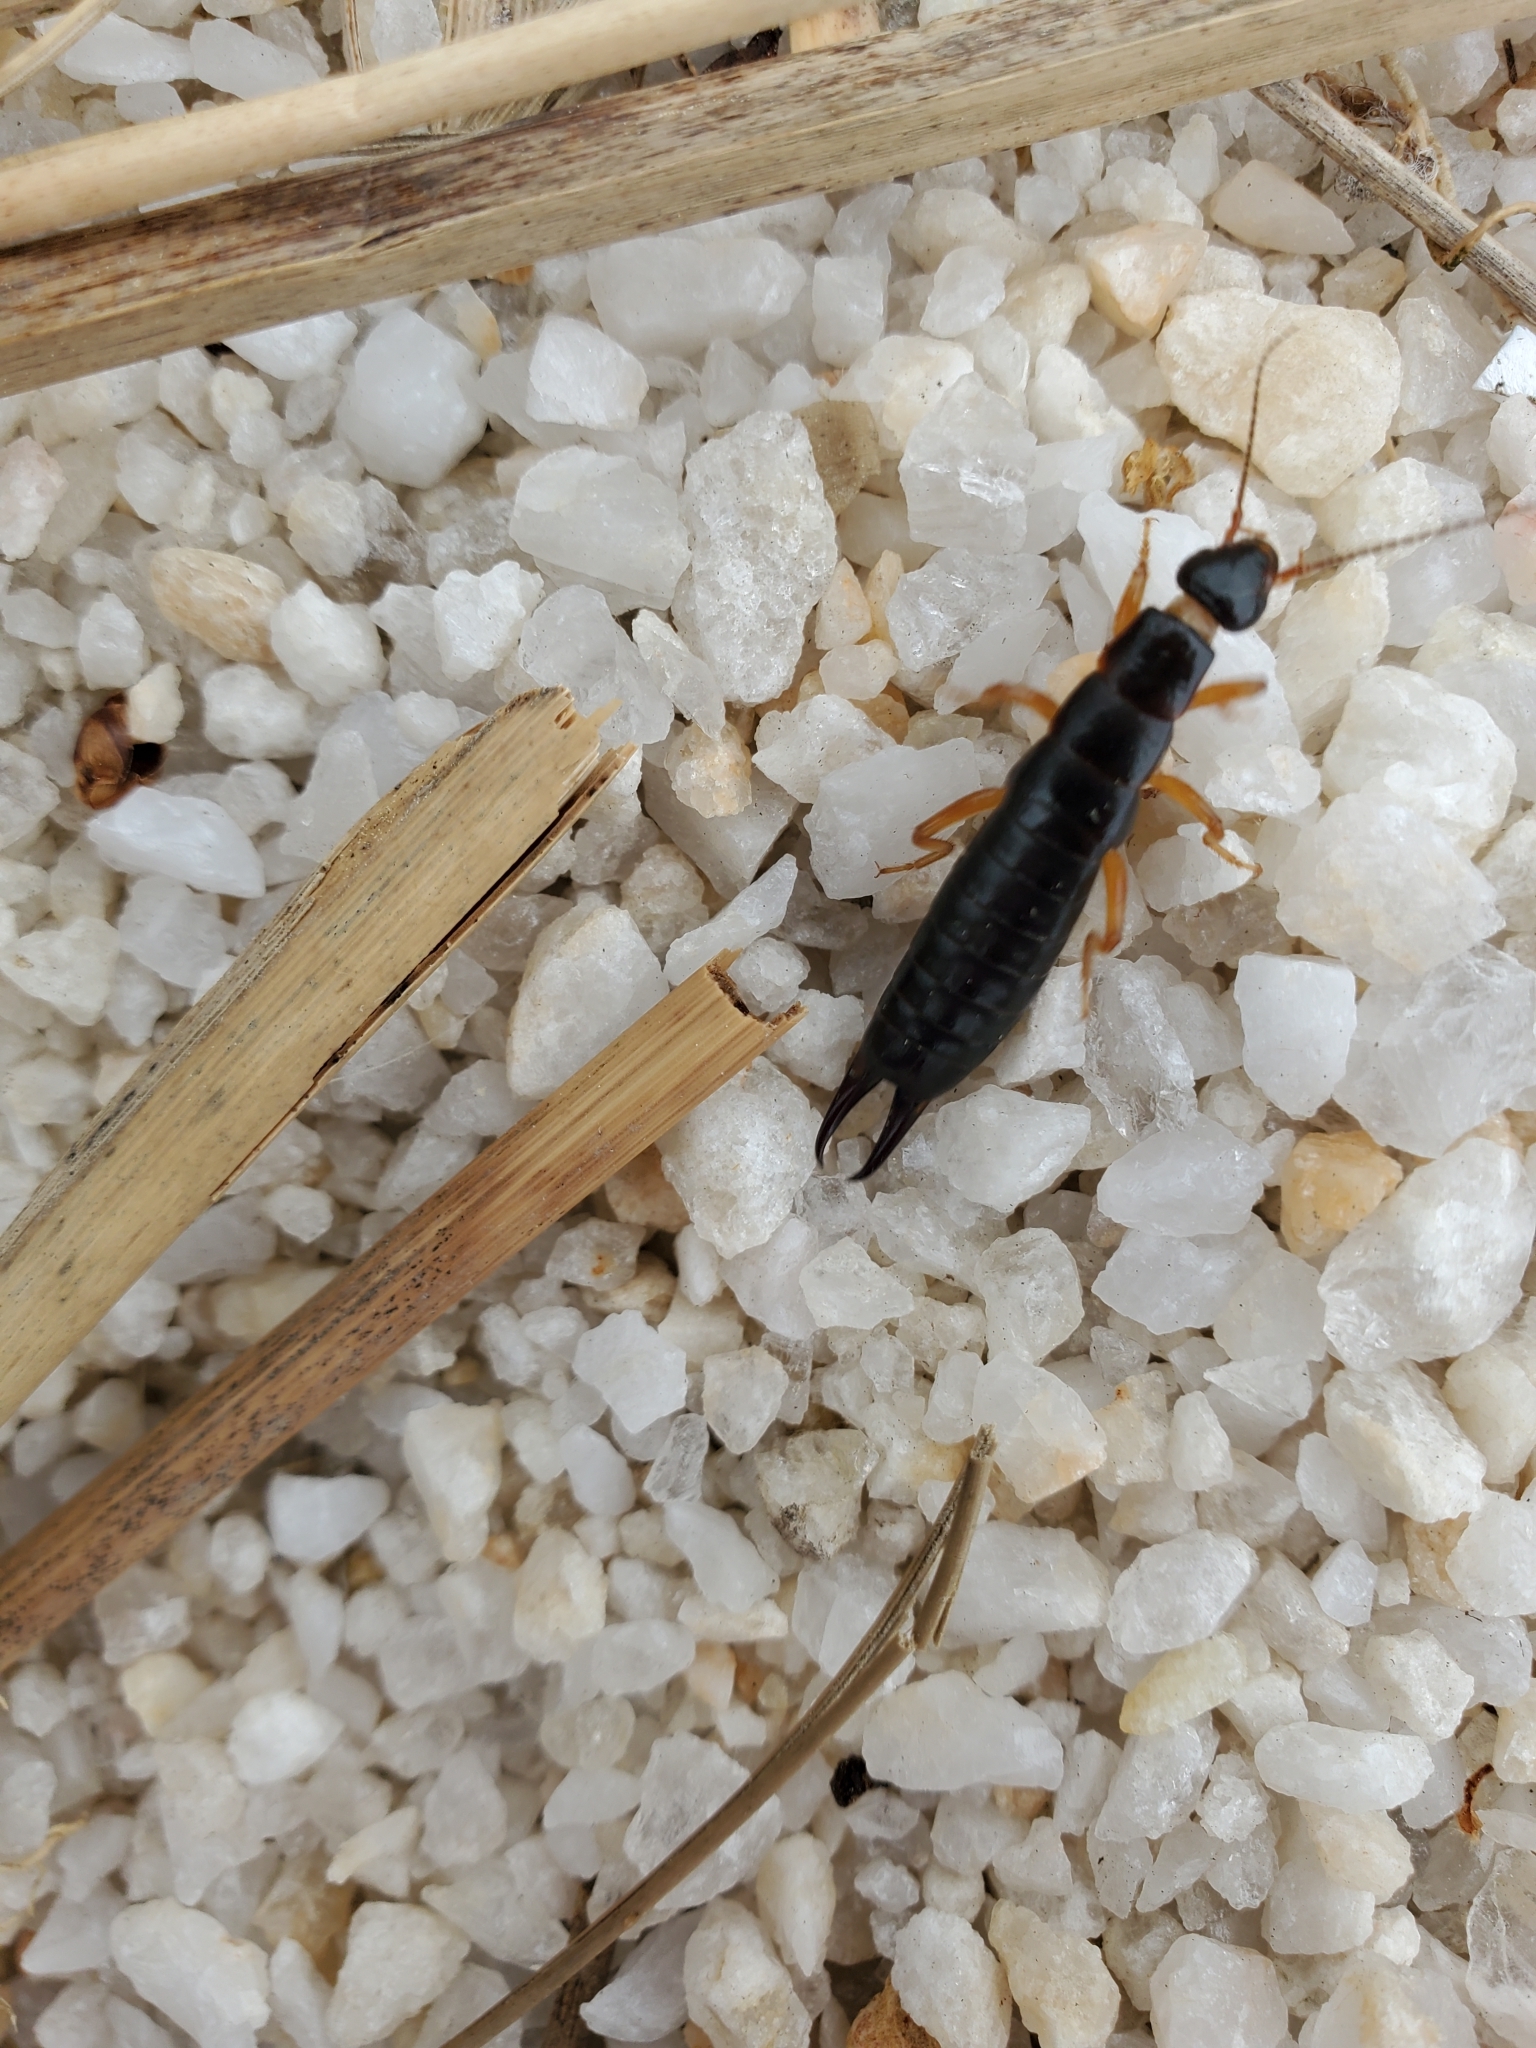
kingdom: Animalia
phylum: Arthropoda
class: Insecta
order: Dermaptera
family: Anisolabididae
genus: Anisolabis
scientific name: Anisolabis maritima
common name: Maritime earwig
